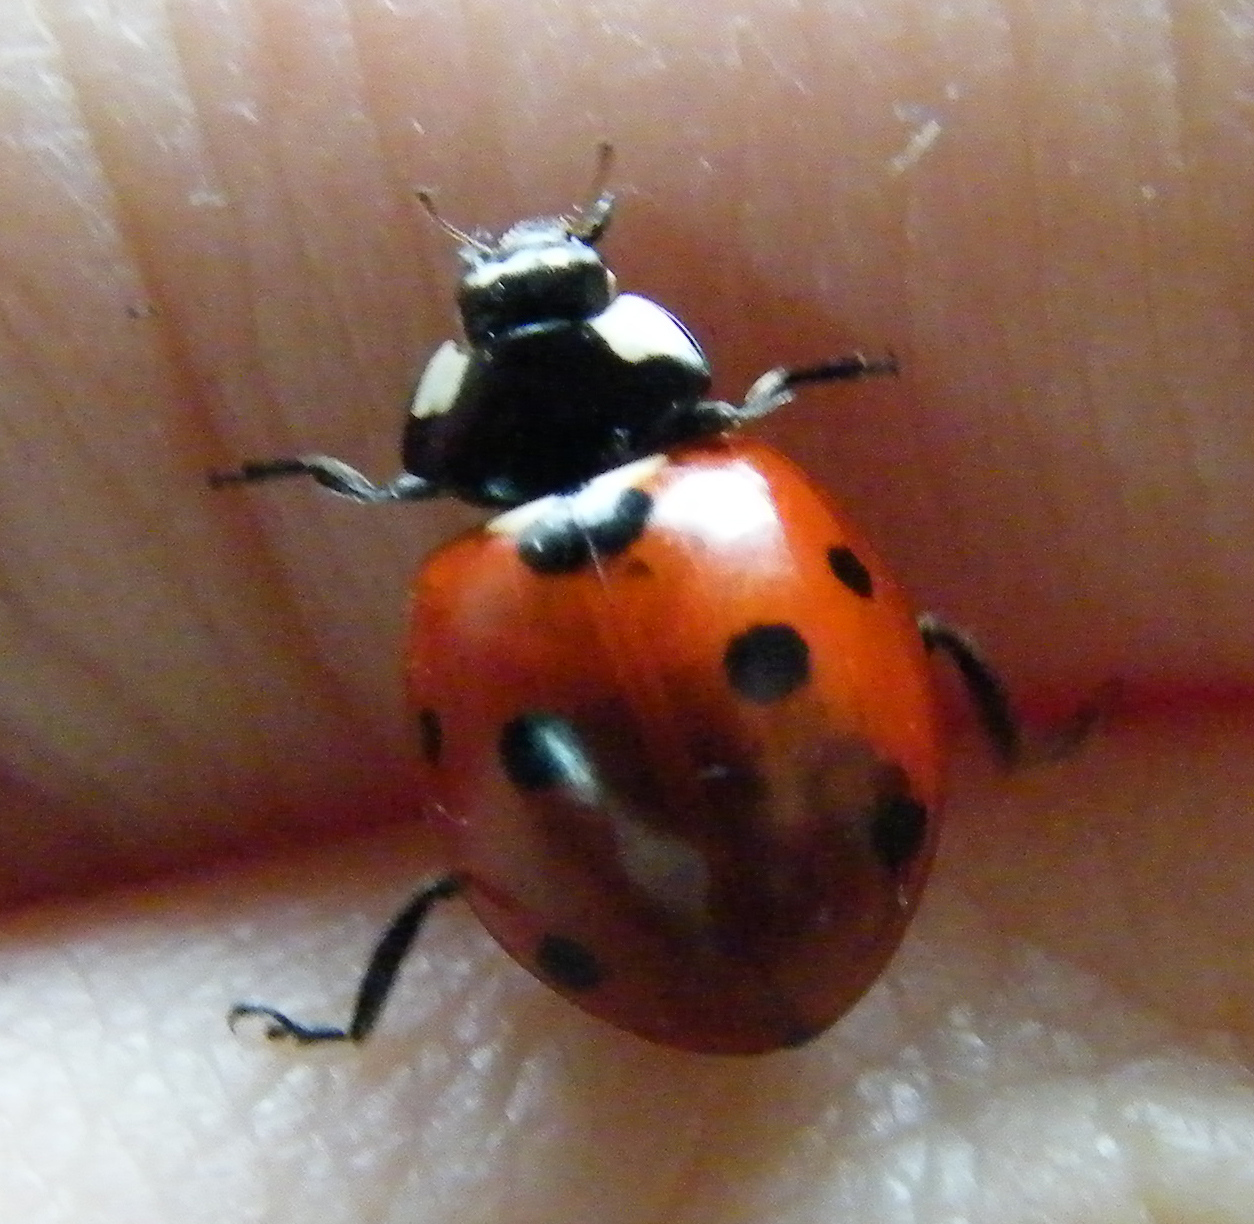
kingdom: Animalia
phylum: Arthropoda
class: Insecta
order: Coleoptera
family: Coccinellidae
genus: Coccinella
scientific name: Coccinella septempunctata
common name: Sevenspotted lady beetle
